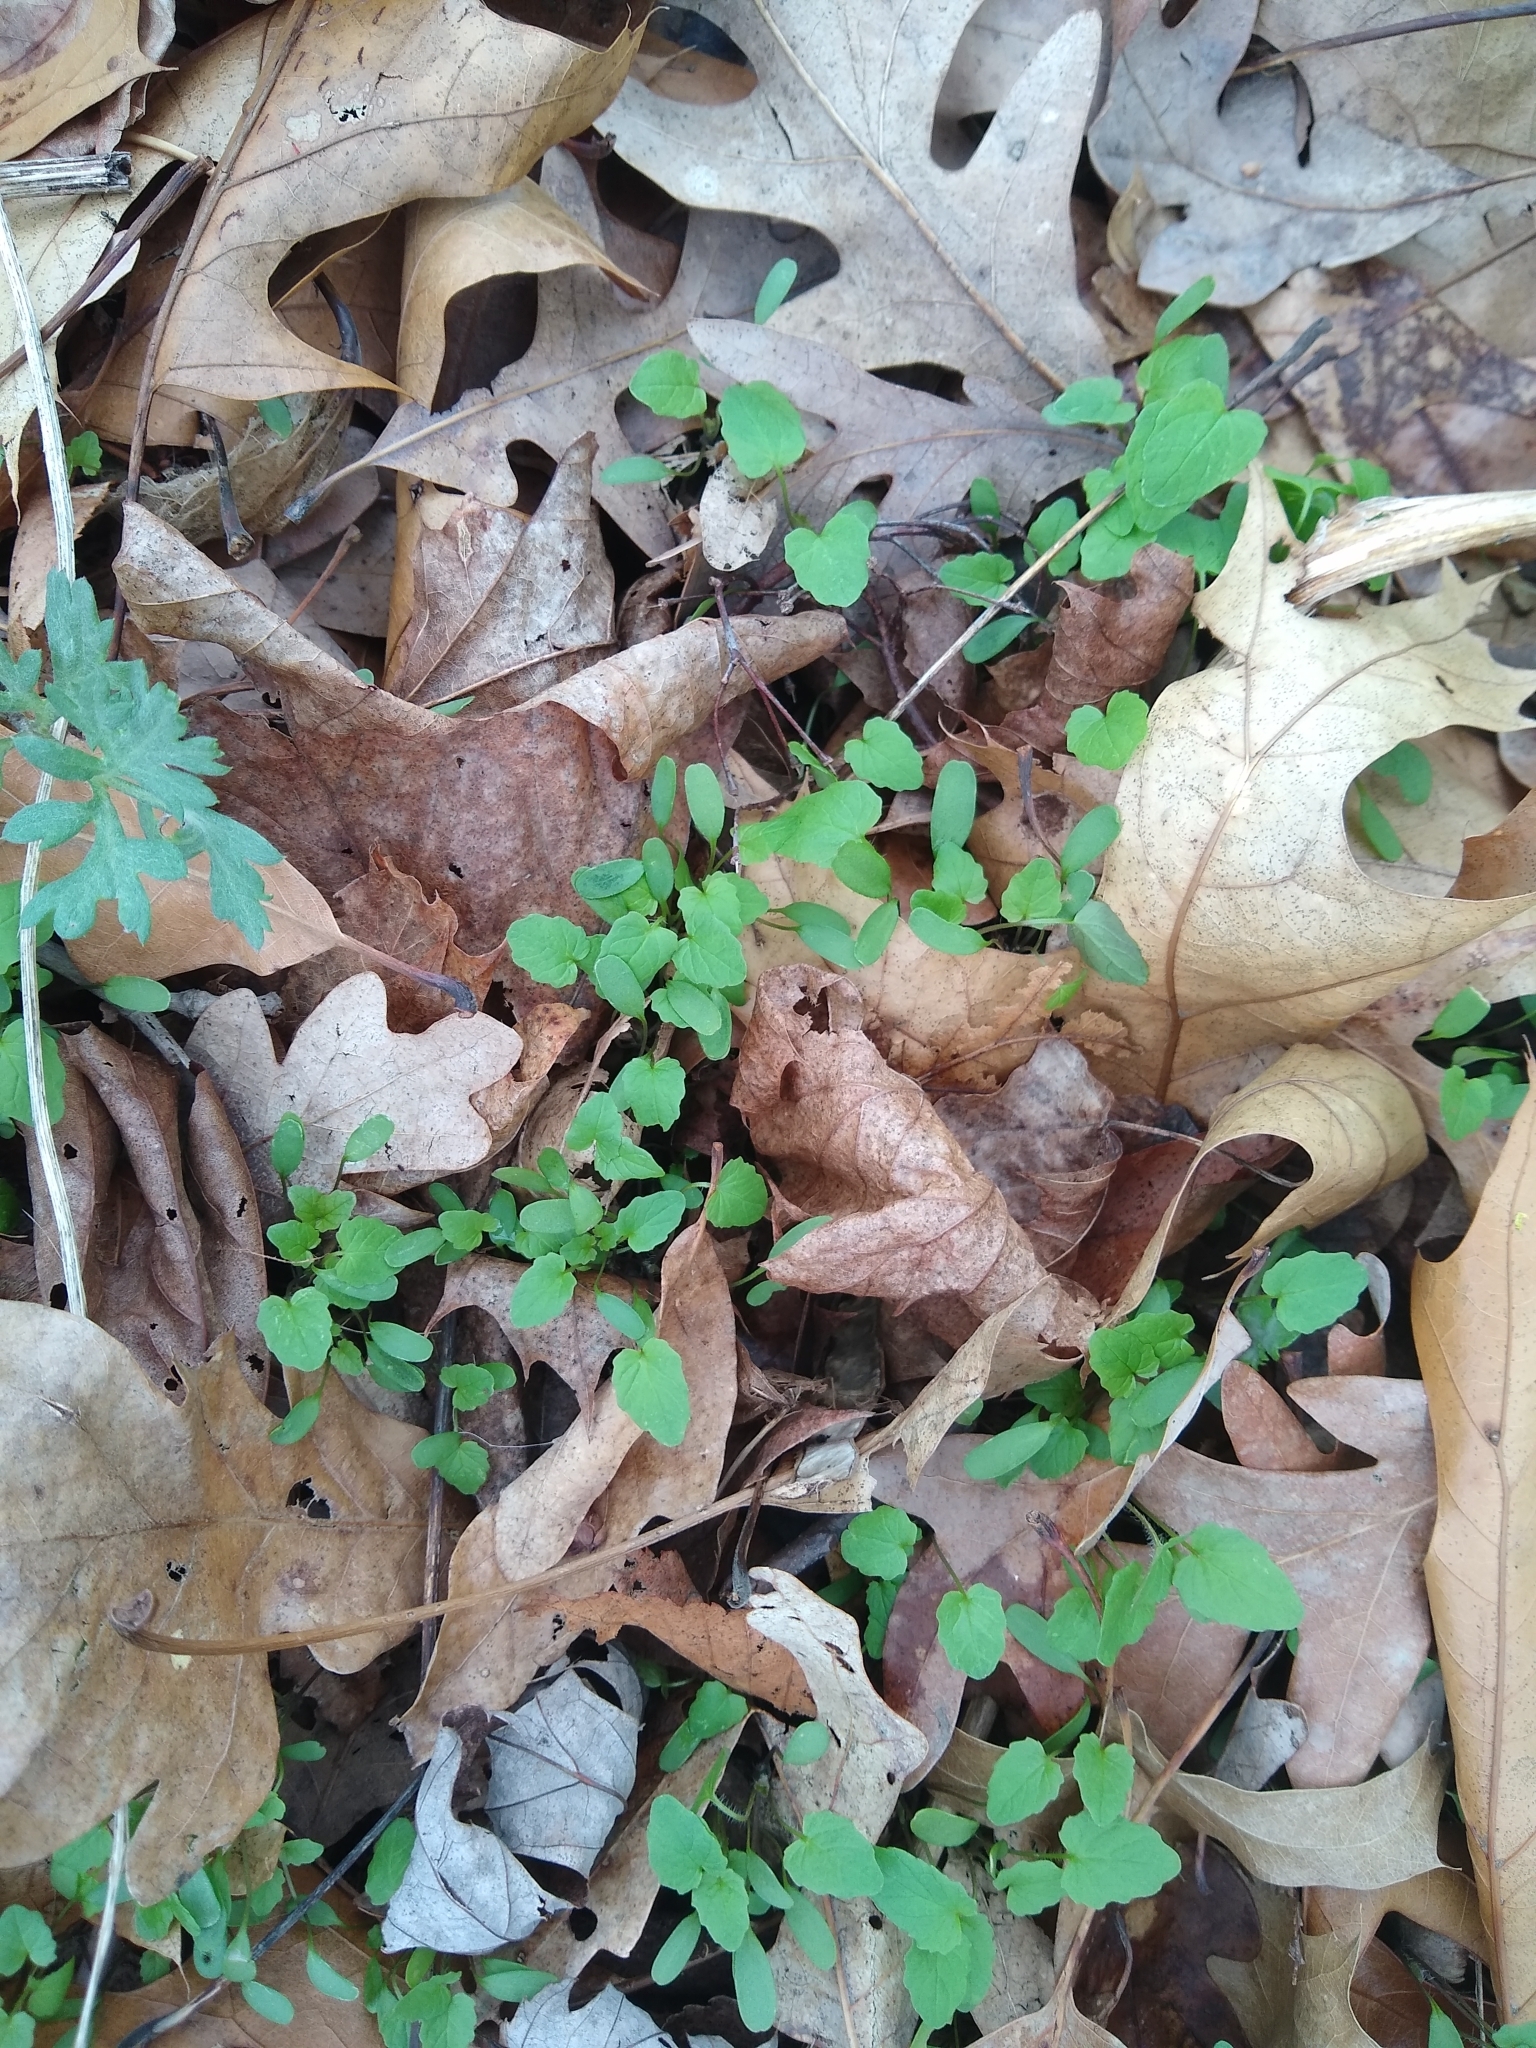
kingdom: Plantae
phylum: Tracheophyta
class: Magnoliopsida
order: Brassicales
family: Brassicaceae
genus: Alliaria
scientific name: Alliaria petiolata
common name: Garlic mustard
